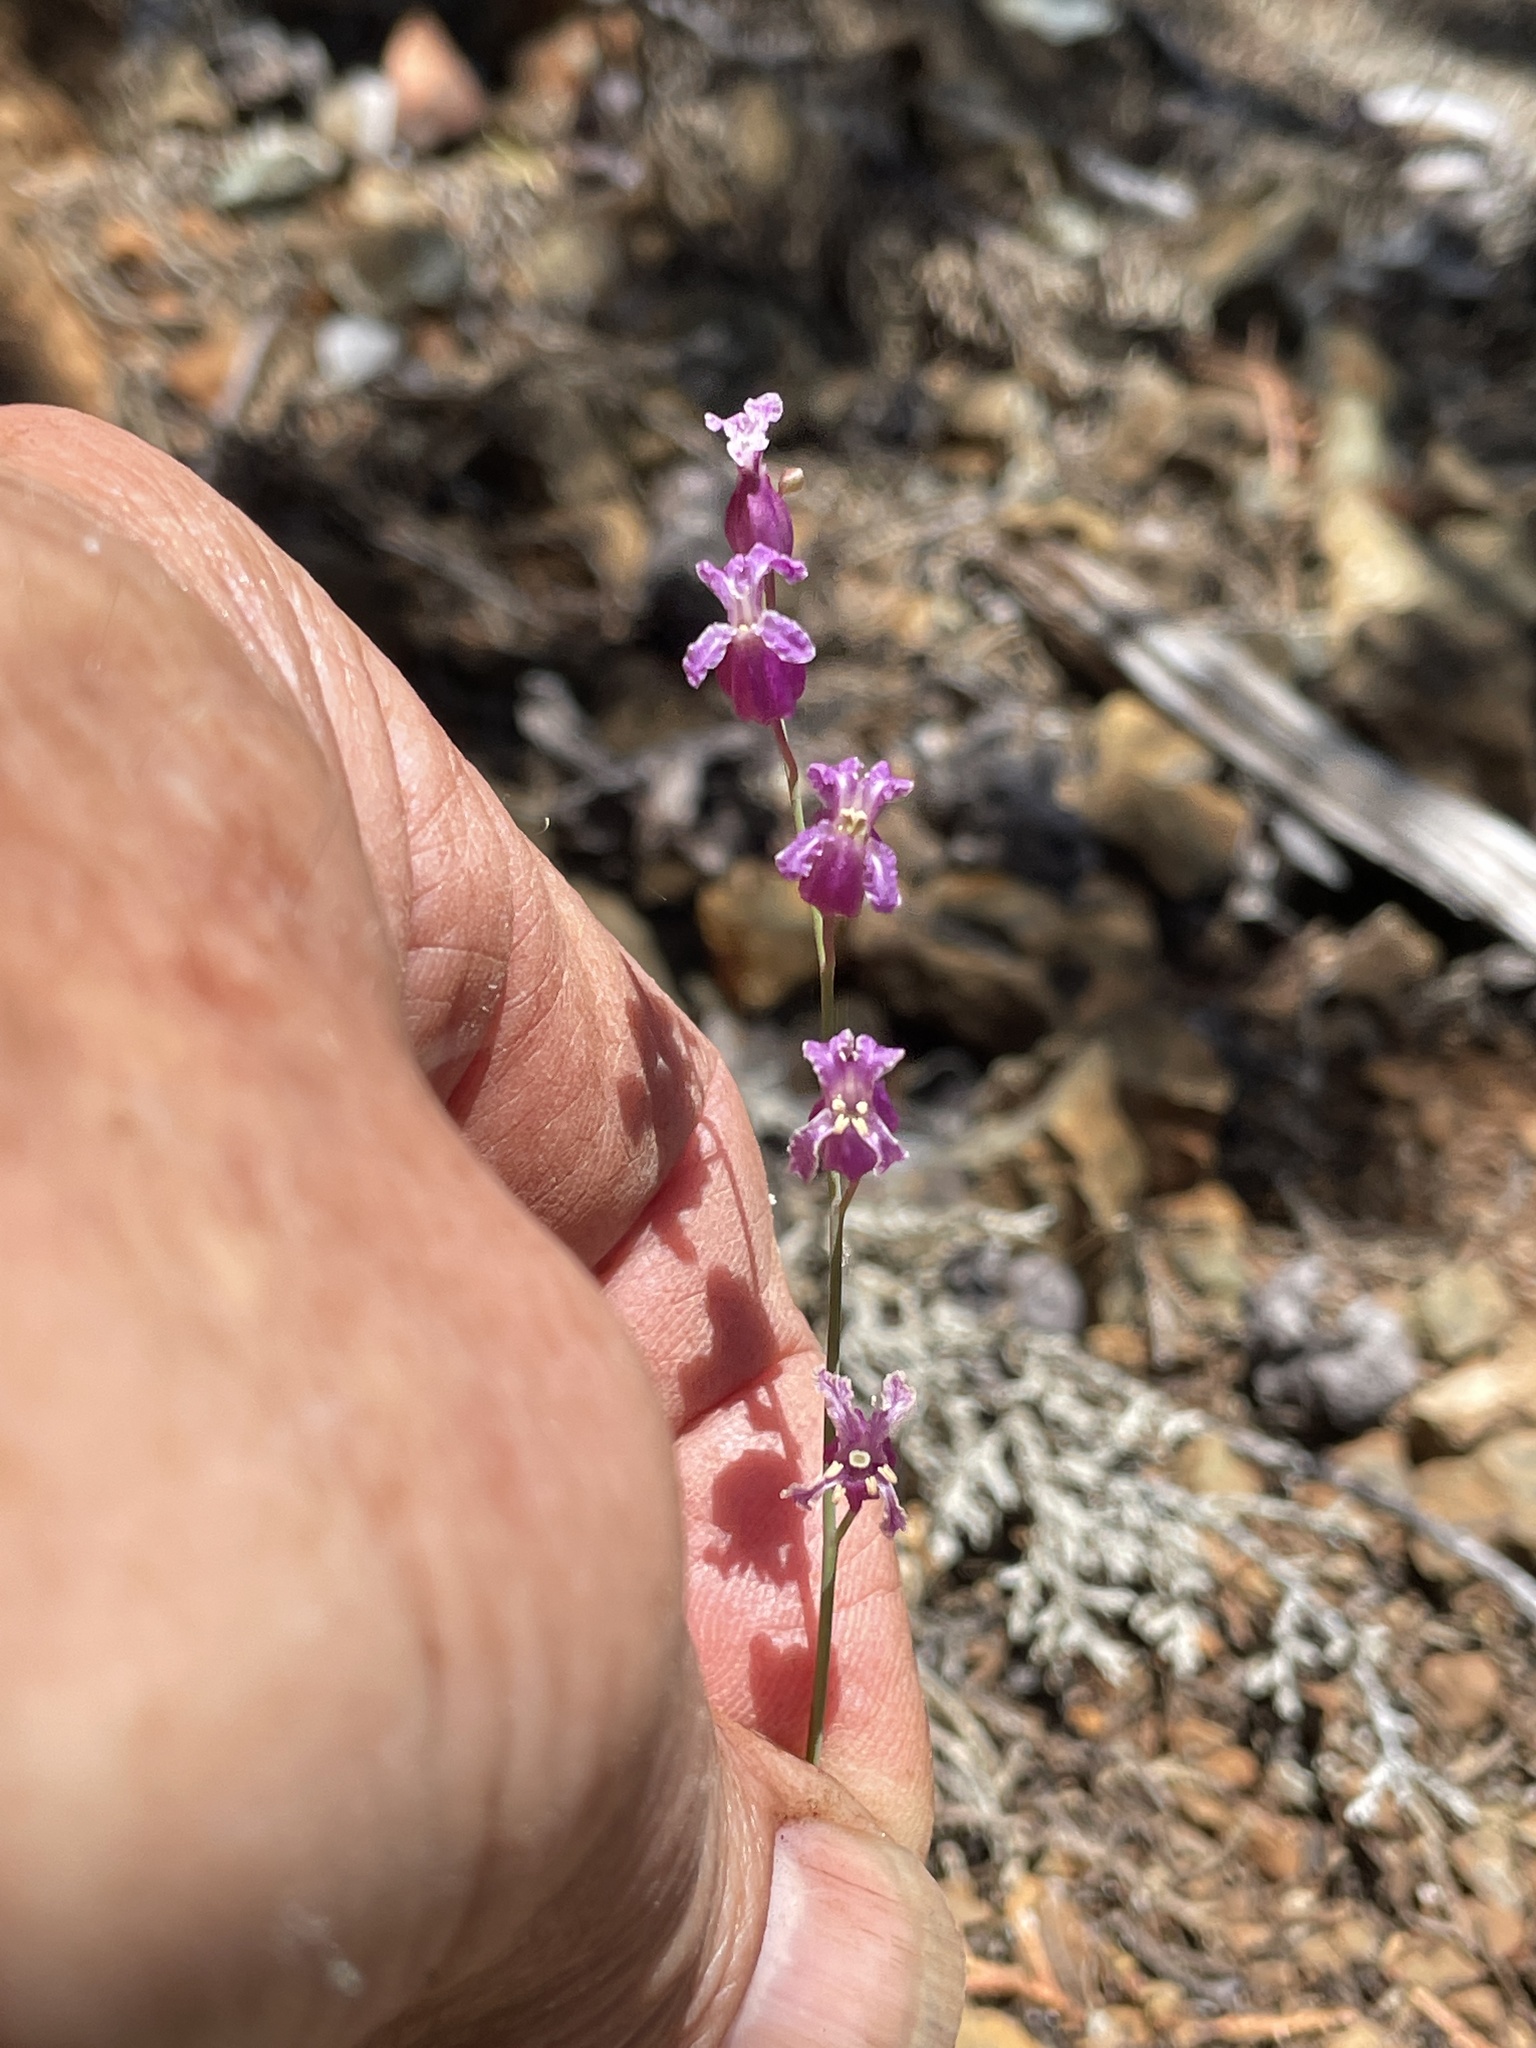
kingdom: Plantae
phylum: Tracheophyta
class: Magnoliopsida
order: Brassicales
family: Brassicaceae
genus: Streptanthus
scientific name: Streptanthus glandulosus
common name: Jewel-flower
